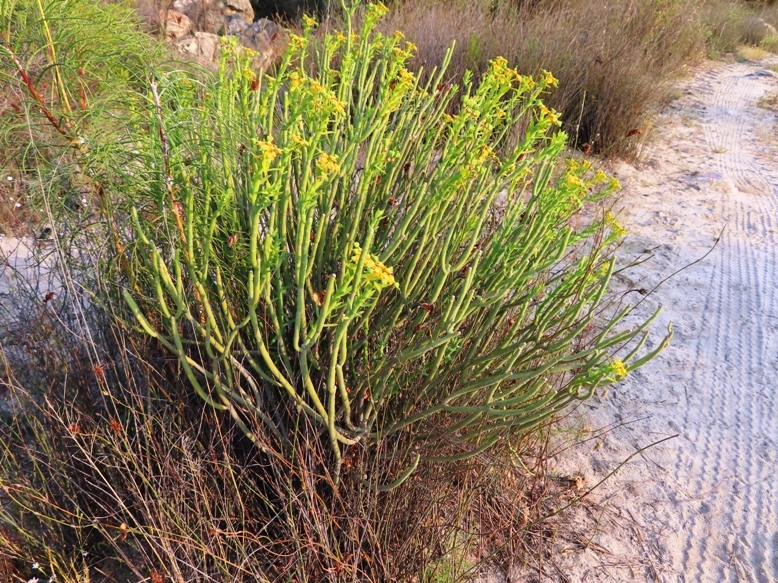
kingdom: Plantae
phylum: Tracheophyta
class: Magnoliopsida
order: Malpighiales
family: Euphorbiaceae
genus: Euphorbia
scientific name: Euphorbia mauritanica
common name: Jackal's-food
